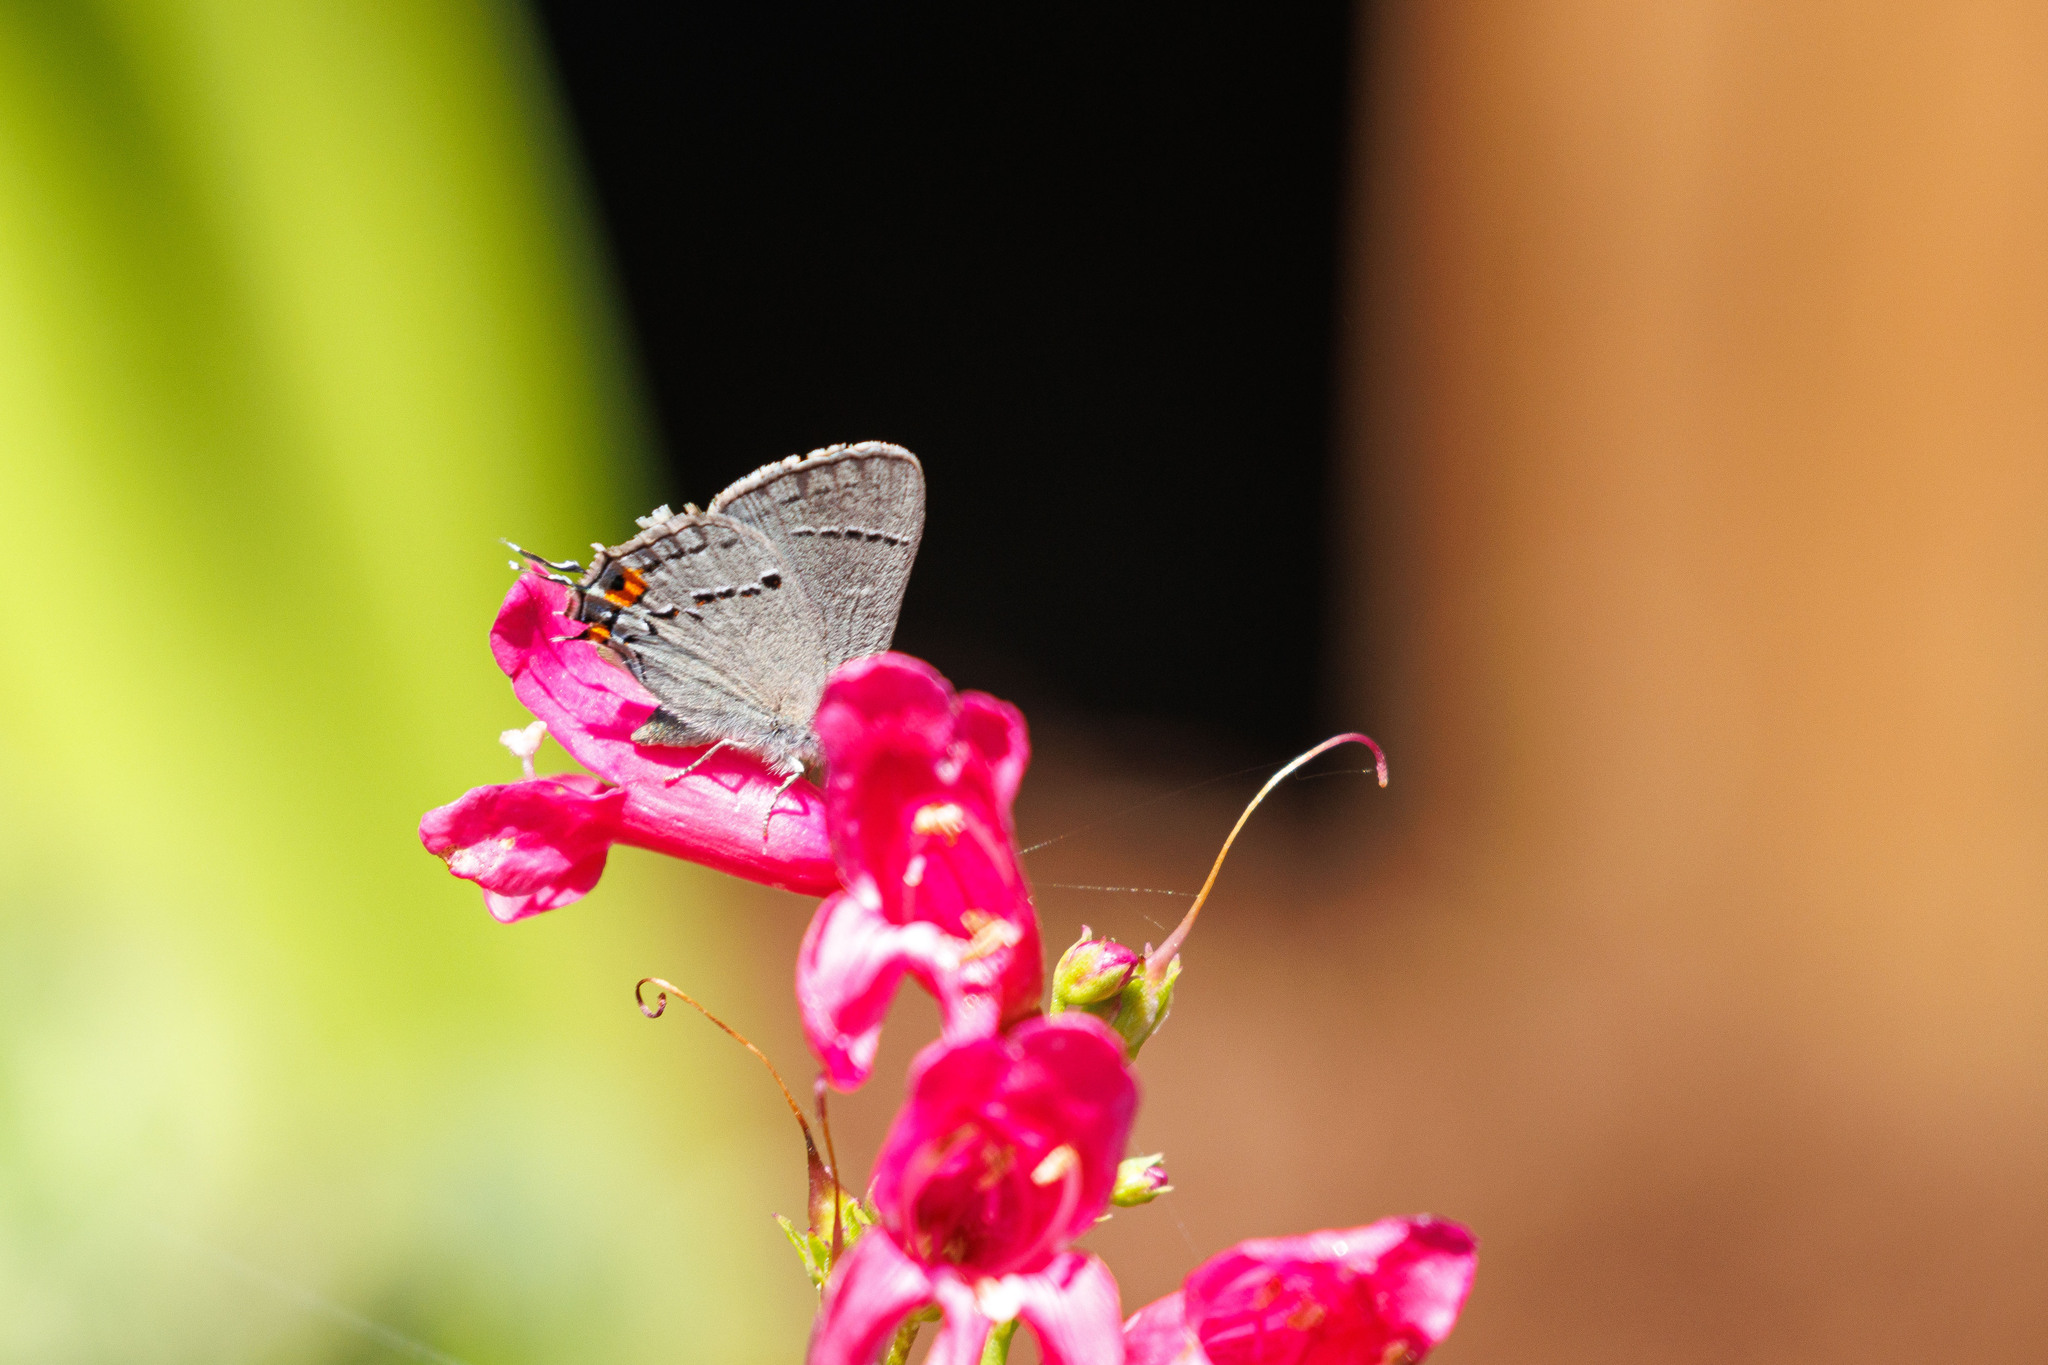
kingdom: Animalia
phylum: Arthropoda
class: Insecta
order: Lepidoptera
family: Lycaenidae
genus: Strymon
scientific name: Strymon melinus
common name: Gray hairstreak
